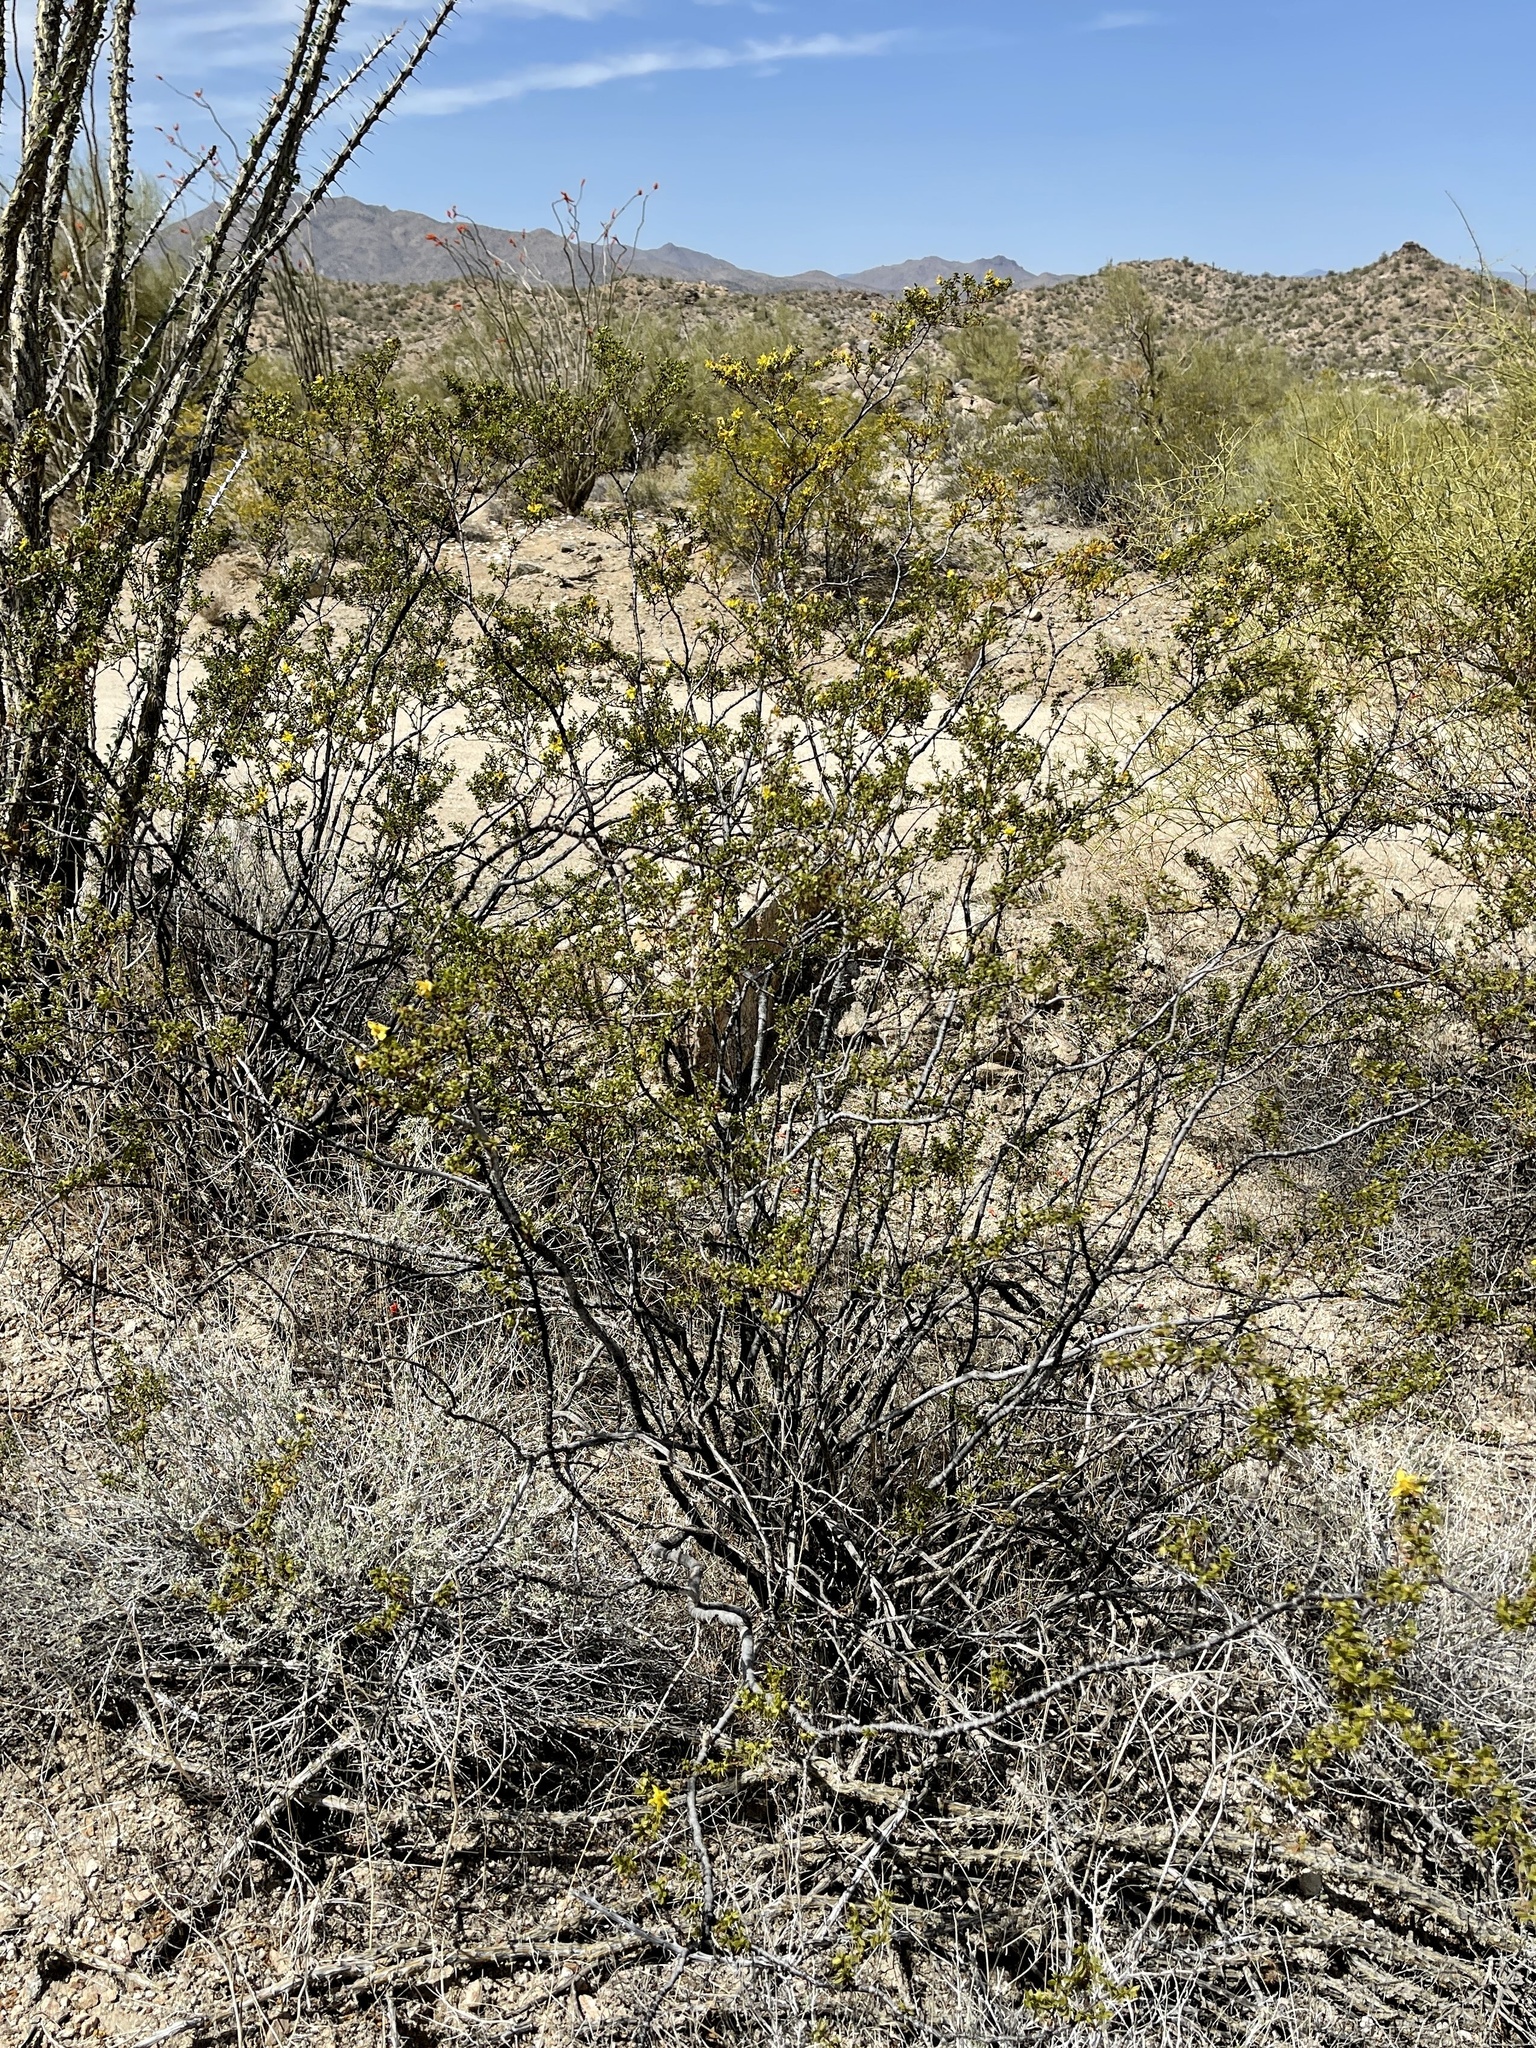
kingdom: Plantae
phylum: Tracheophyta
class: Magnoliopsida
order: Zygophyllales
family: Zygophyllaceae
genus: Larrea
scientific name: Larrea tridentata
